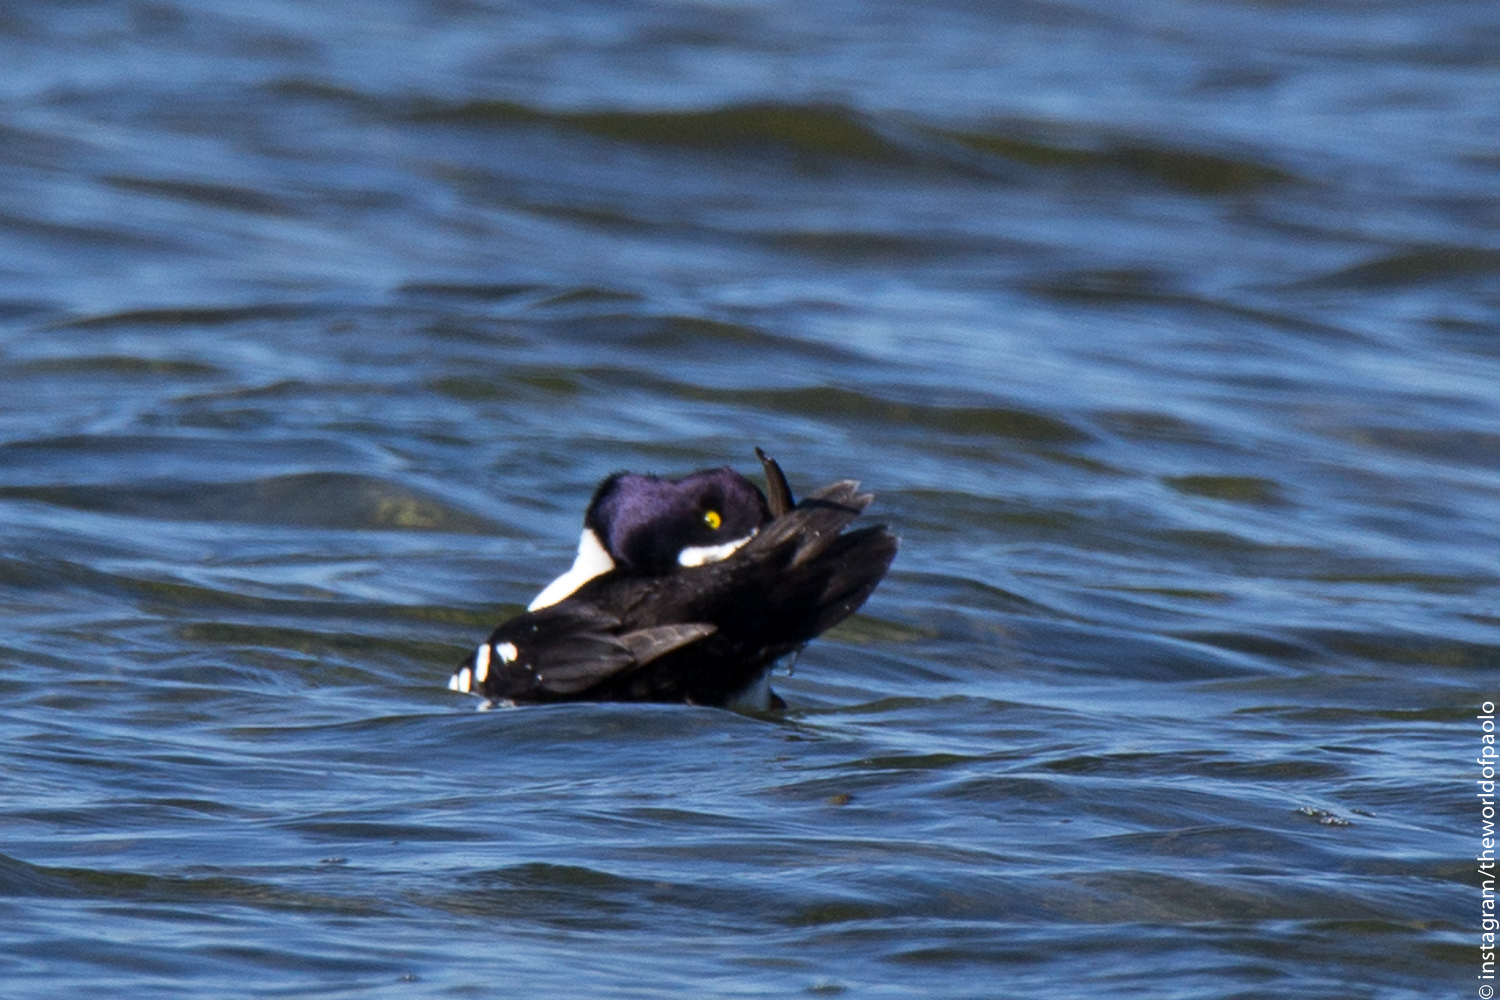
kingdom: Animalia
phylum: Chordata
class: Aves
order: Anseriformes
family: Anatidae
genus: Bucephala
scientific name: Bucephala islandica
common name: Barrow's goldeneye
